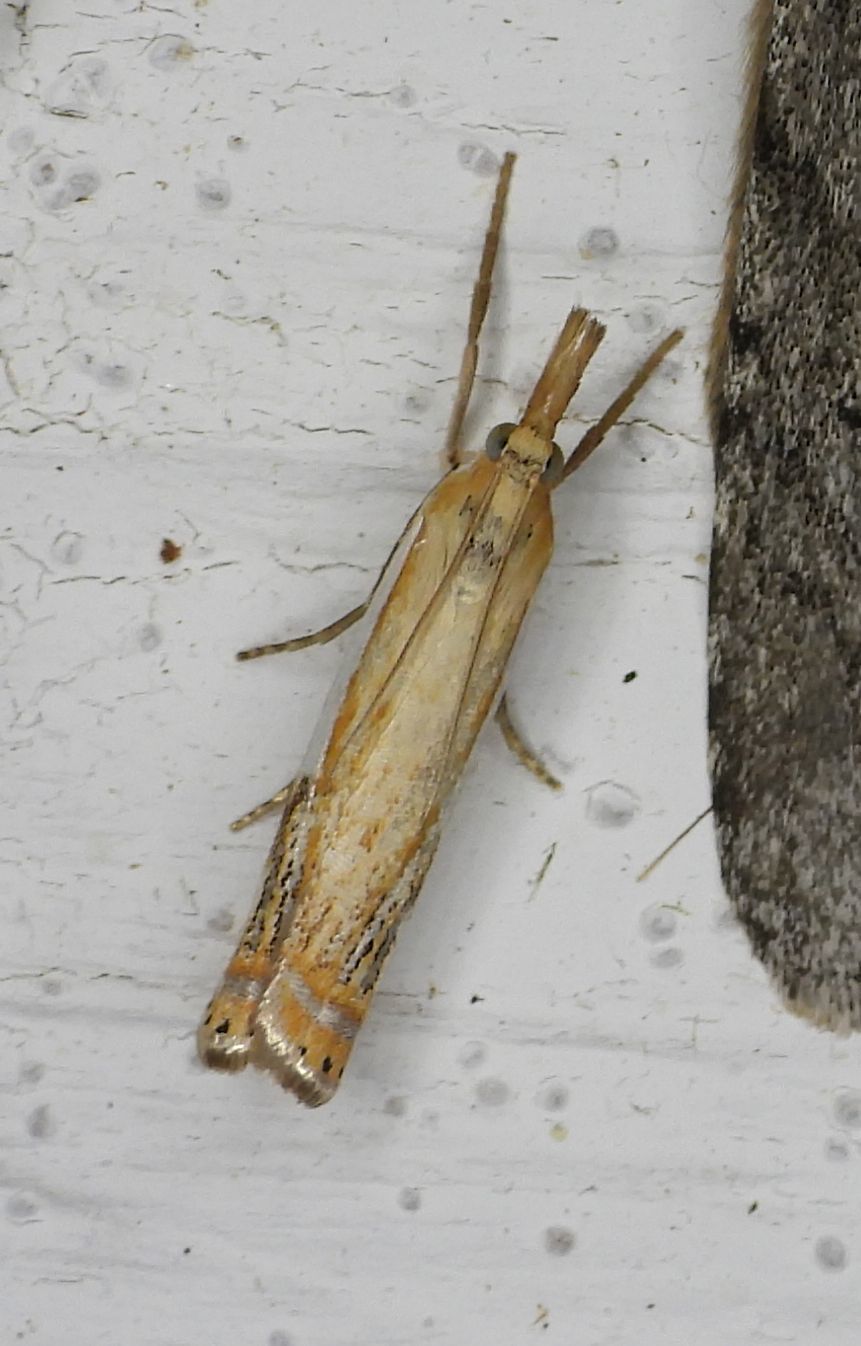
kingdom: Animalia
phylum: Arthropoda
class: Insecta
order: Lepidoptera
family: Crambidae
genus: Crambus
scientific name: Crambus agitatellus
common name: Double-banded grass-veneer
